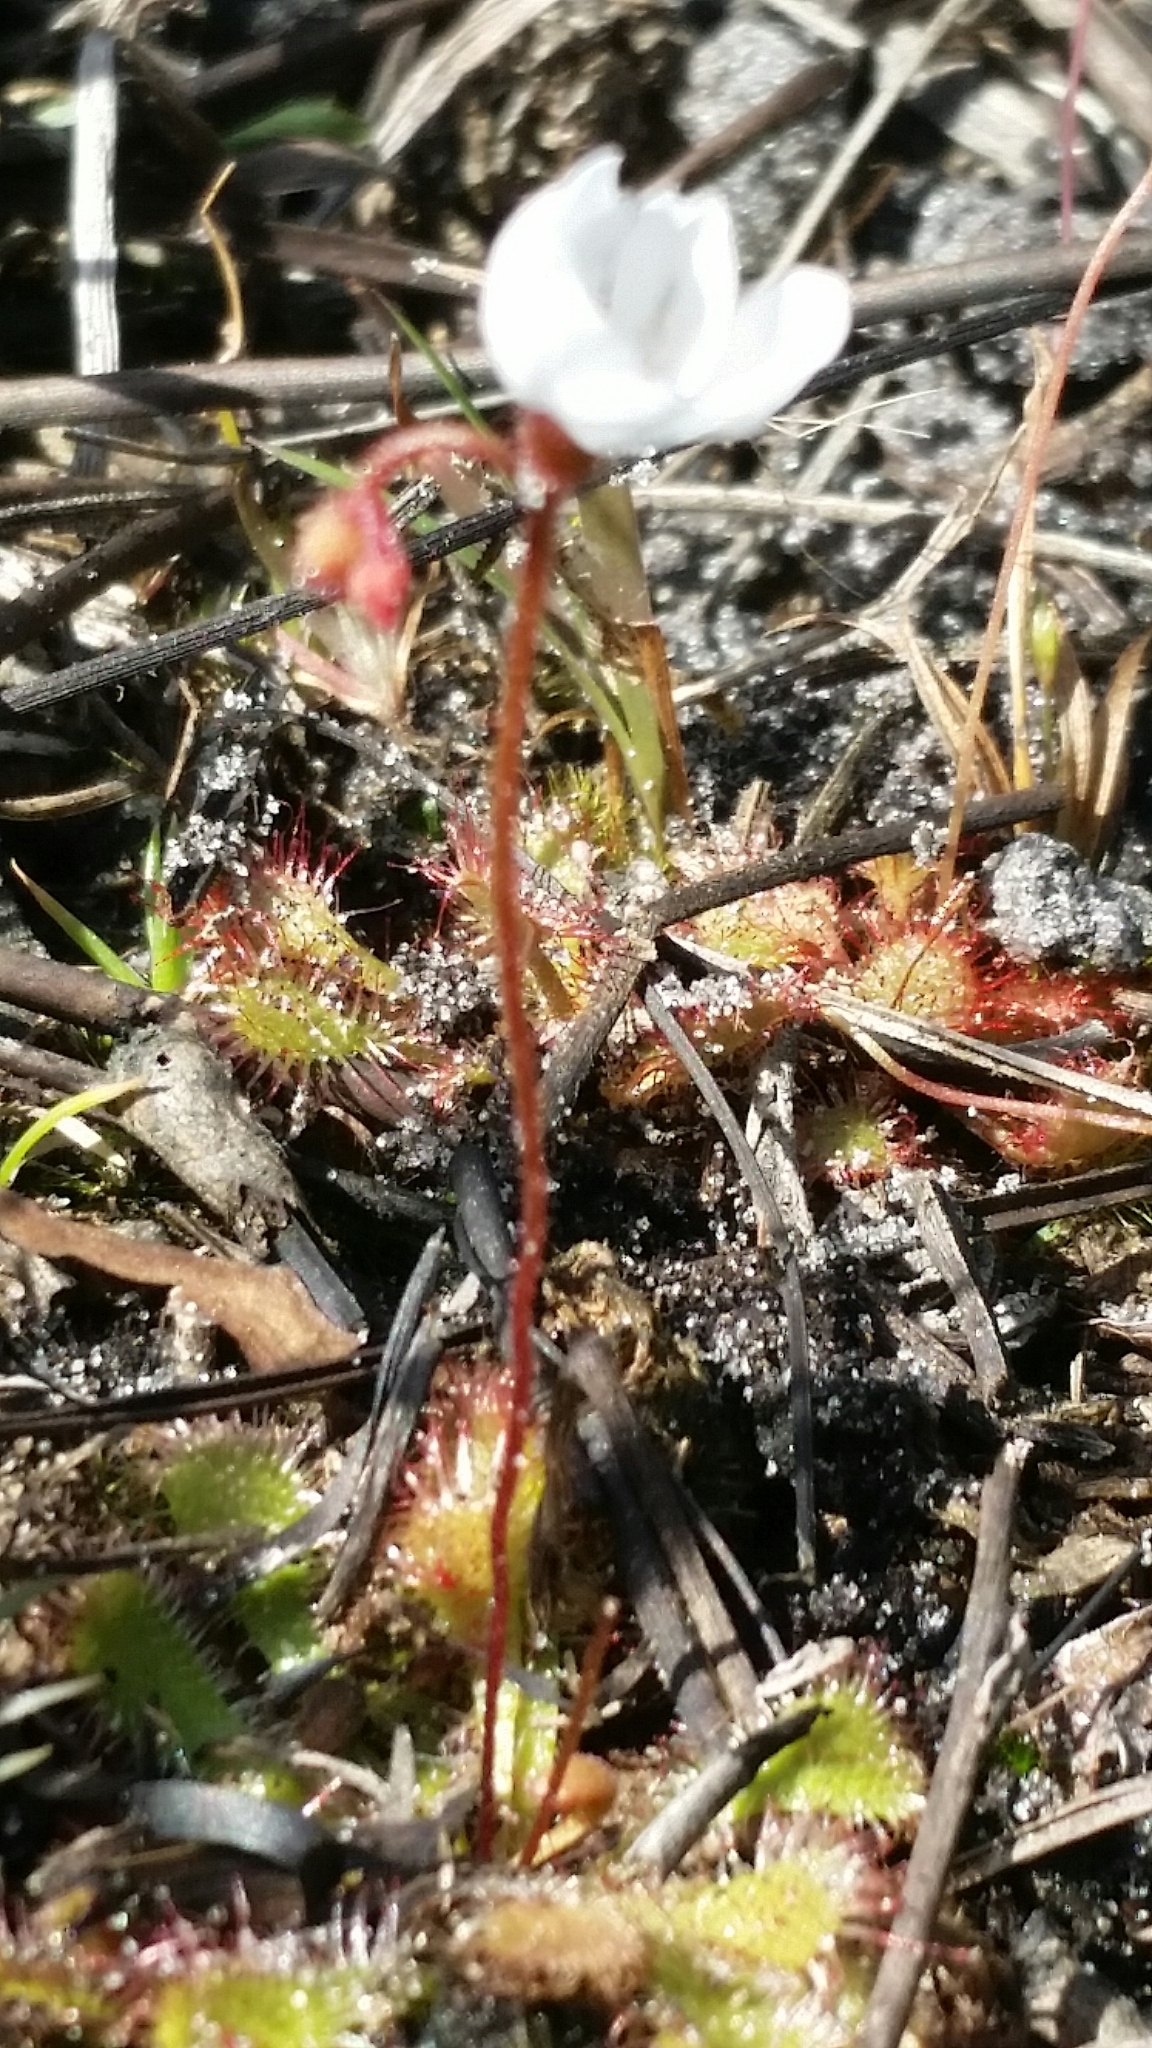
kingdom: Plantae
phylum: Tracheophyta
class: Magnoliopsida
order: Caryophyllales
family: Droseraceae
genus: Drosera
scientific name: Drosera brevifolia
